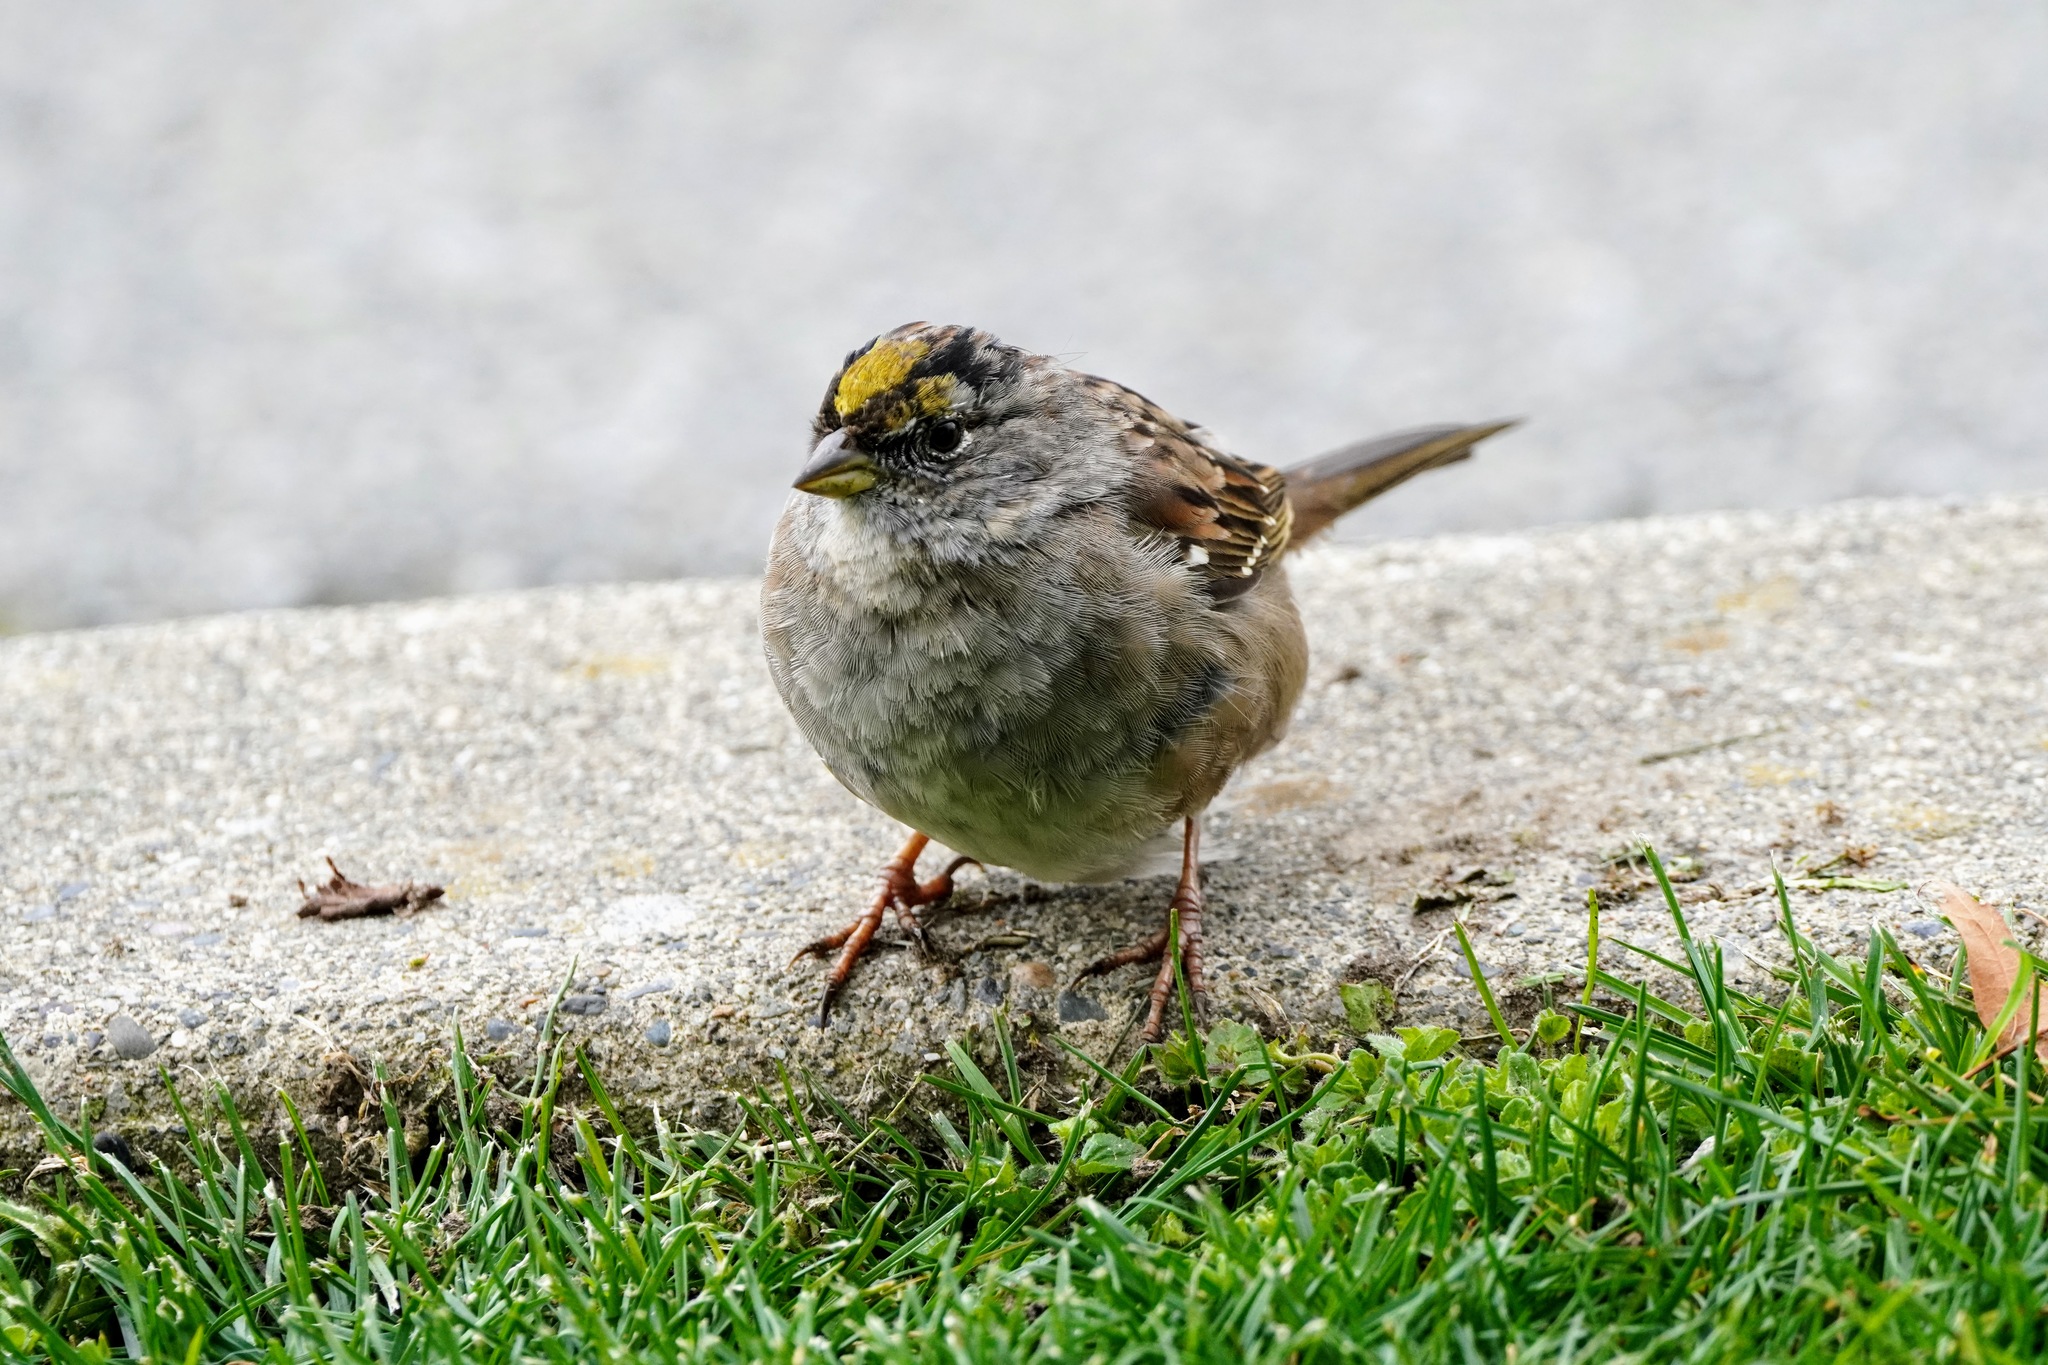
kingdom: Animalia
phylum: Chordata
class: Aves
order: Passeriformes
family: Passerellidae
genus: Zonotrichia
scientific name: Zonotrichia atricapilla
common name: Golden-crowned sparrow
